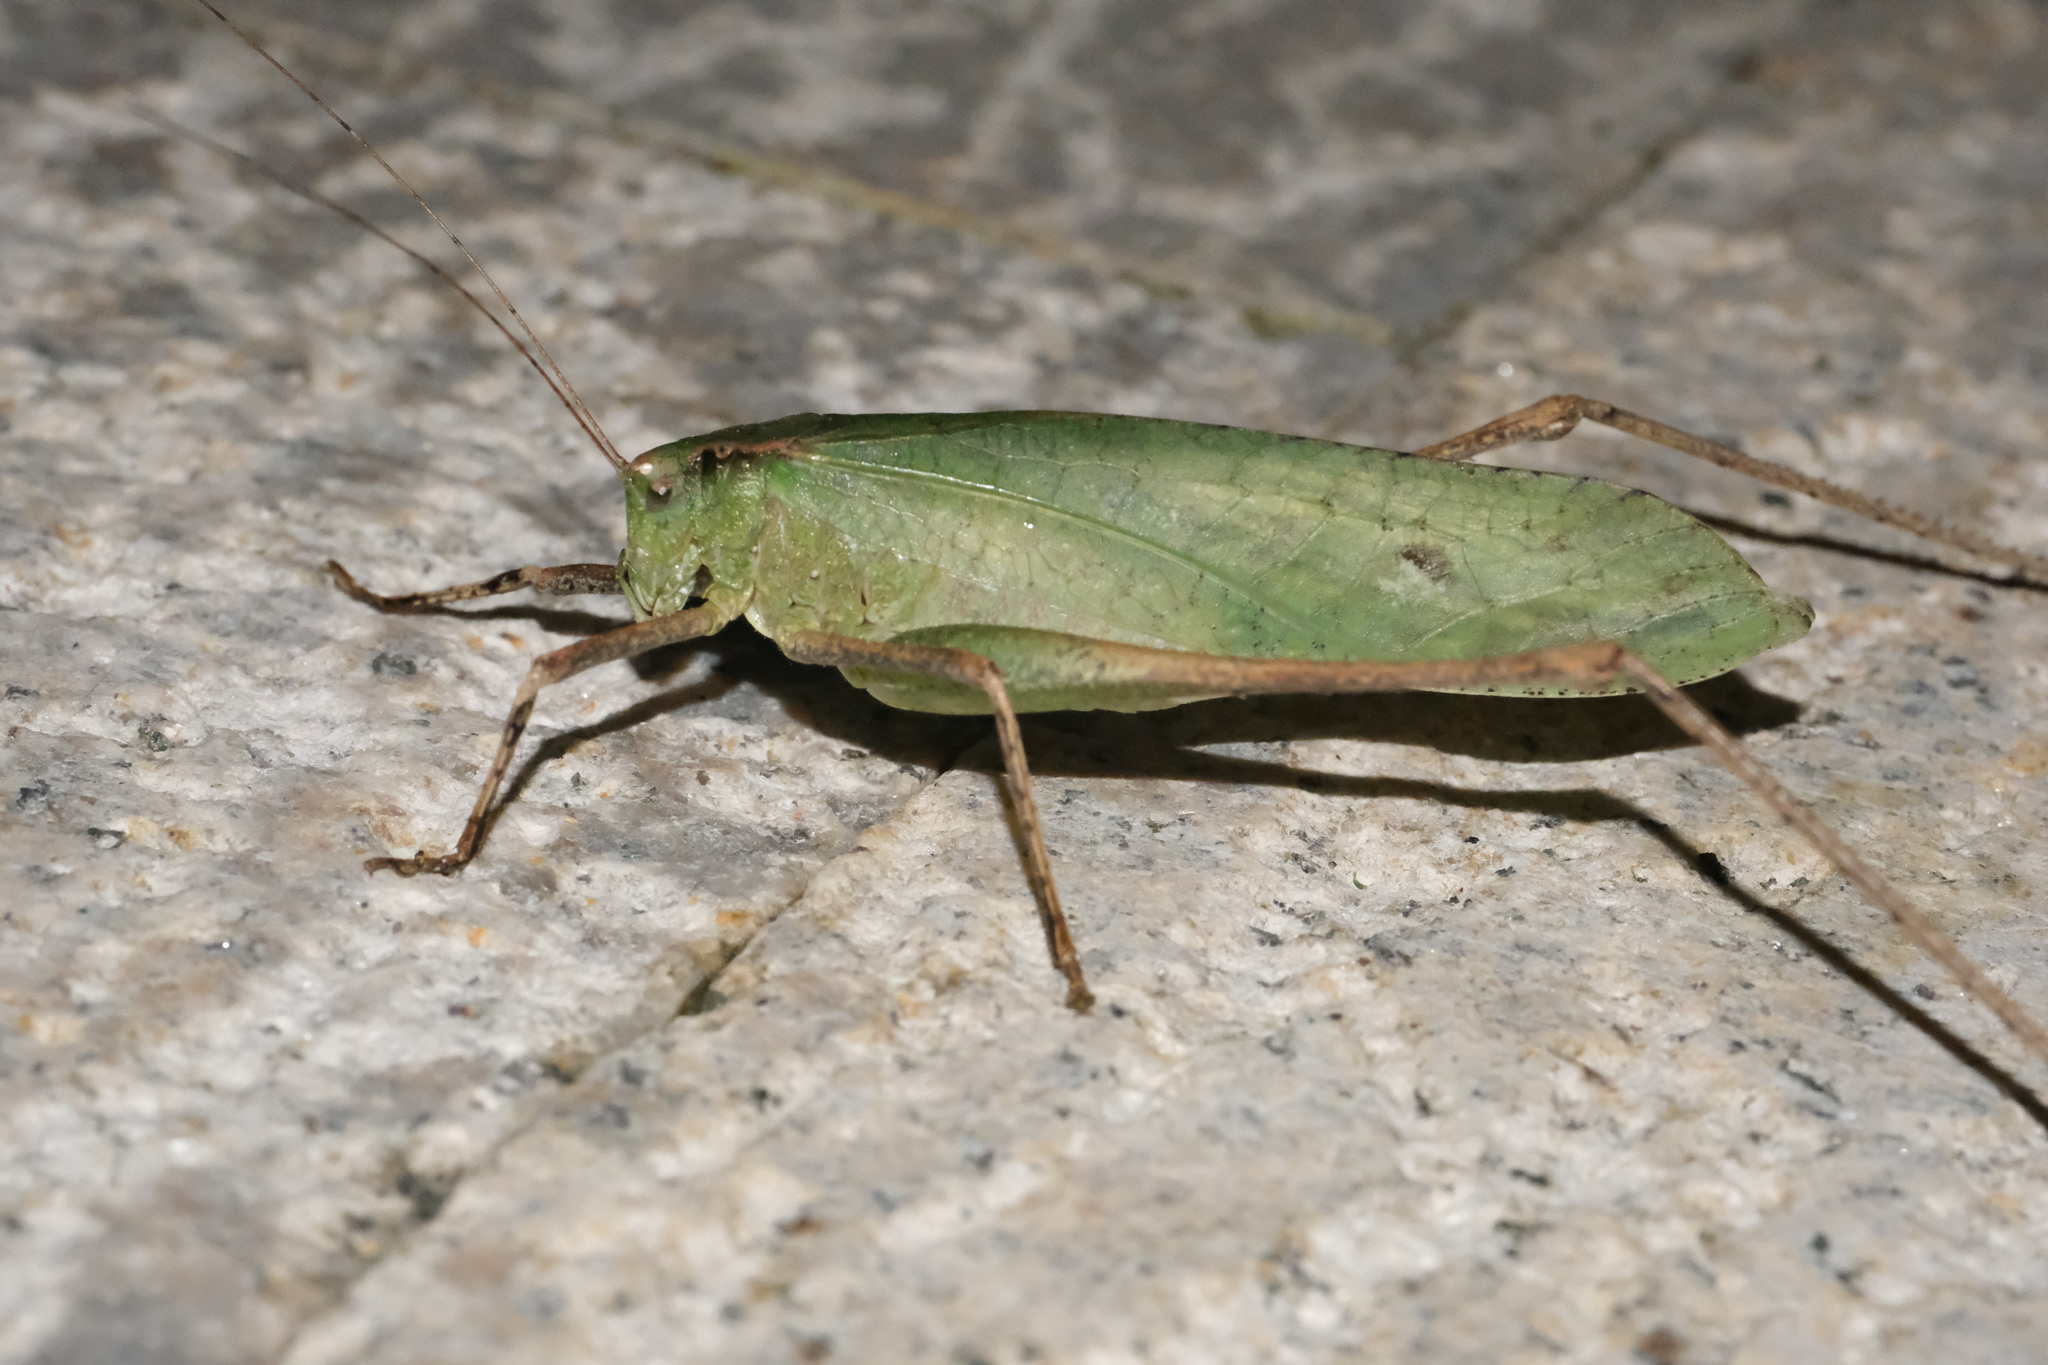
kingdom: Animalia
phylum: Arthropoda
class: Insecta
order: Orthoptera
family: Tettigoniidae
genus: Mecopoda
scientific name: Mecopoda elongata
